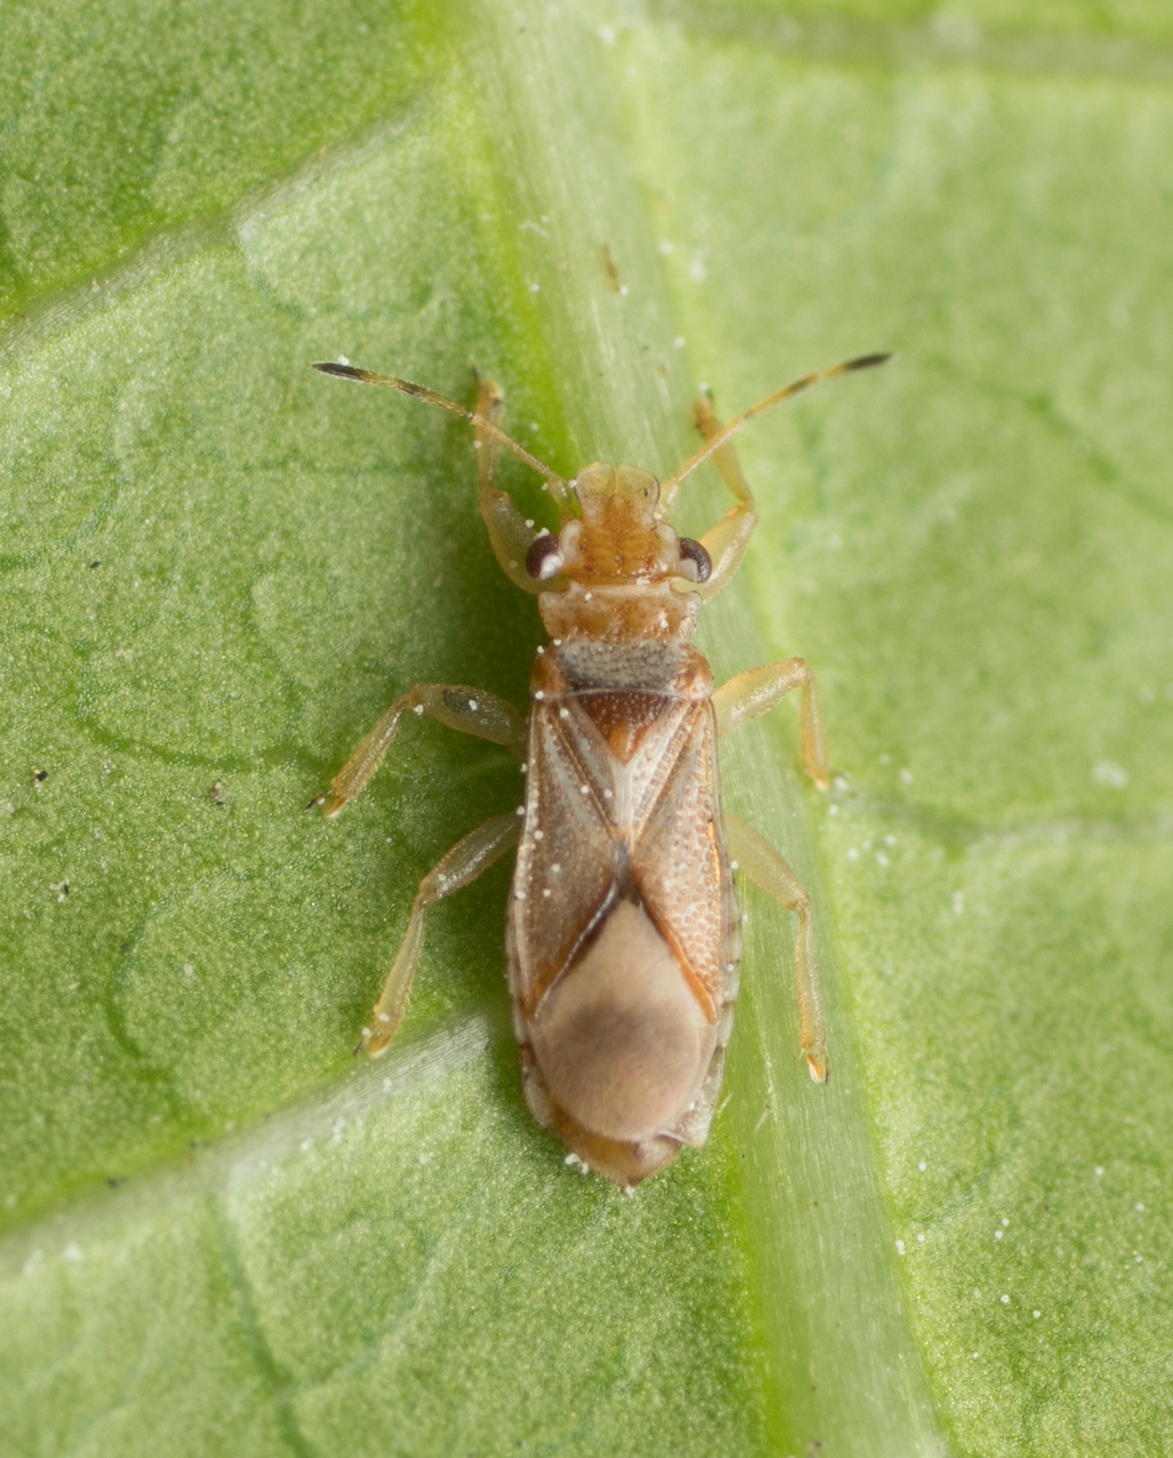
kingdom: Animalia
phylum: Arthropoda
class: Insecta
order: Hemiptera
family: Thaumastocoridae
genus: Thaumastocoris
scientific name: Thaumastocoris peregrinus
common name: Bronze bug
